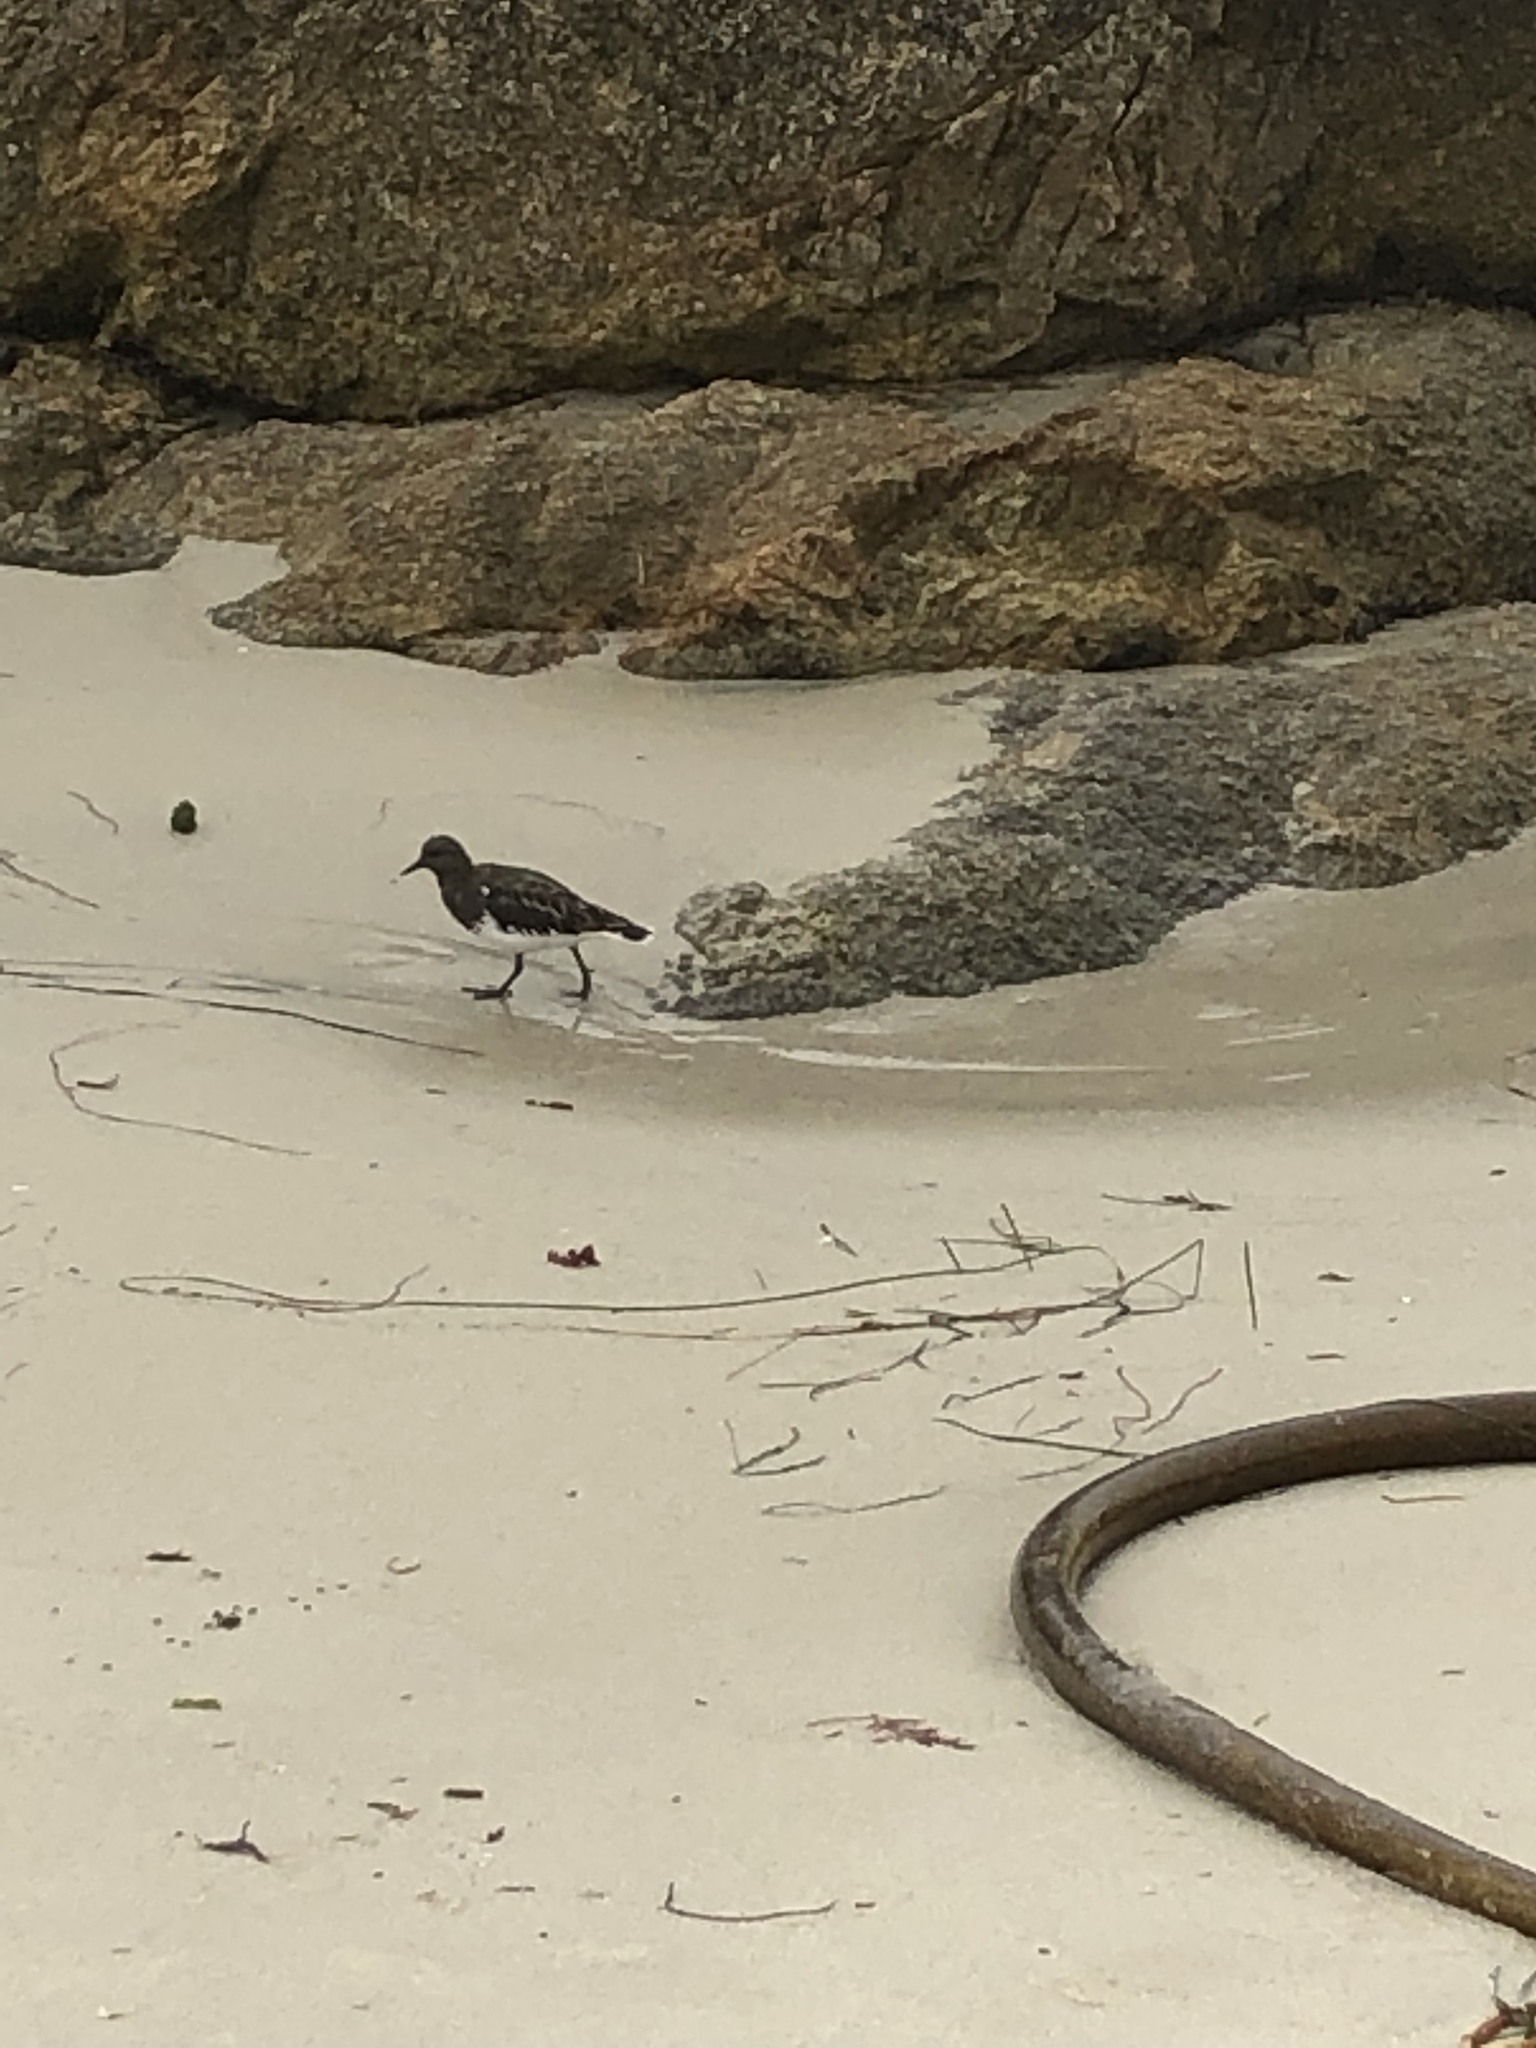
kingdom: Animalia
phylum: Chordata
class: Aves
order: Charadriiformes
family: Scolopacidae
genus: Arenaria
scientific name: Arenaria melanocephala
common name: Black turnstone
